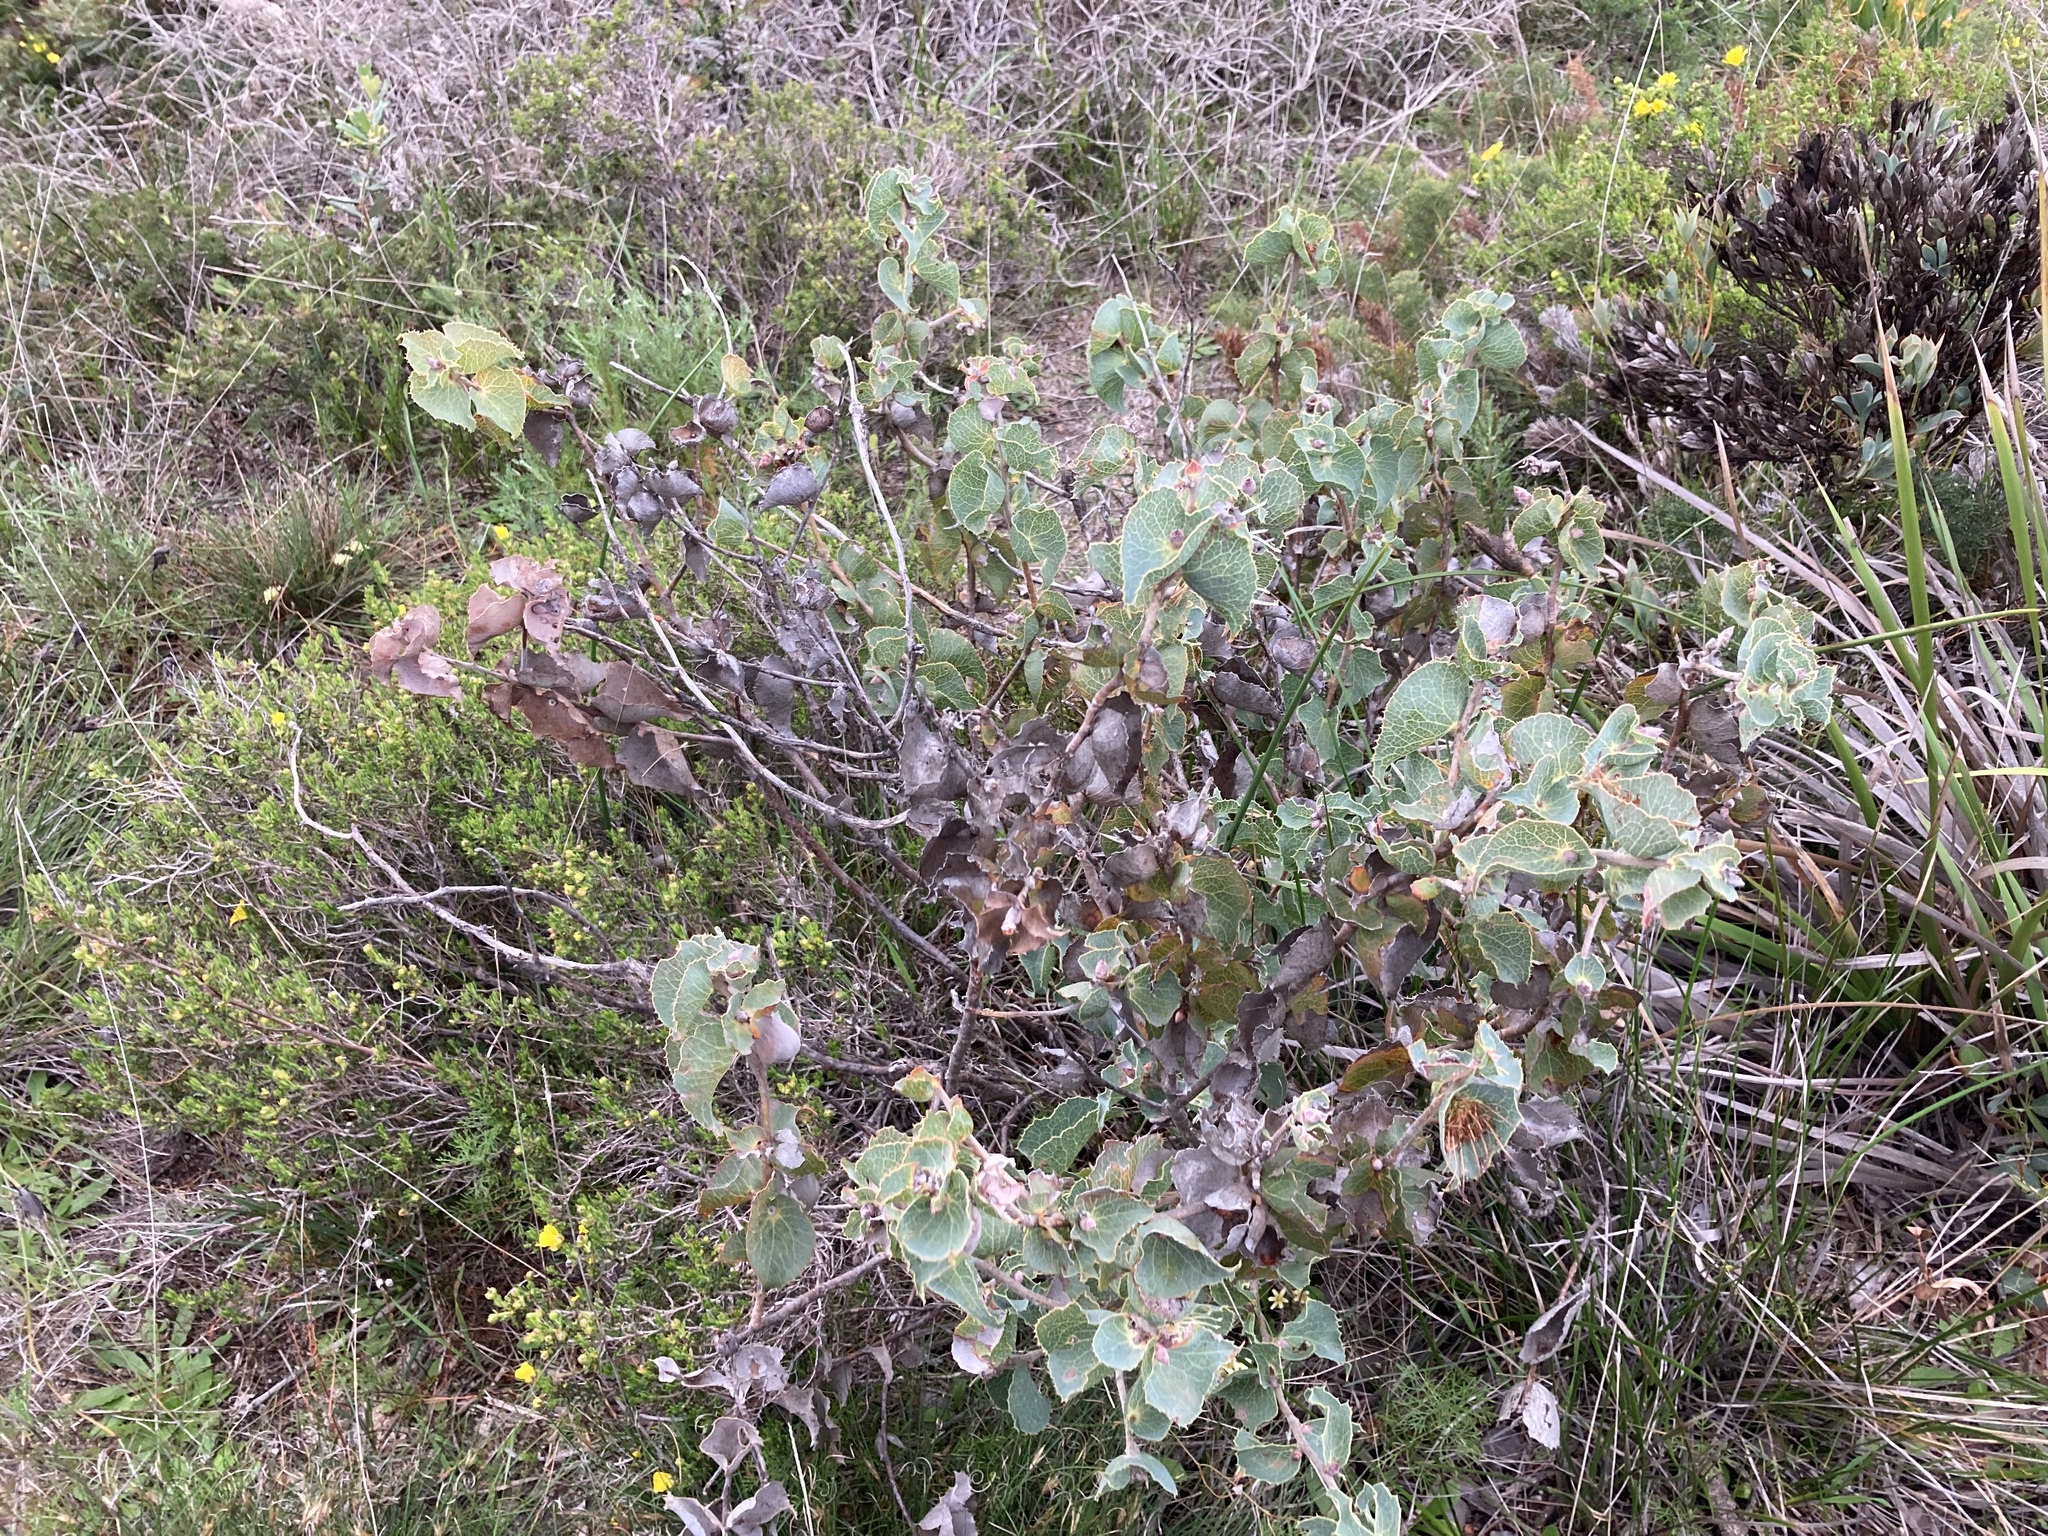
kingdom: Plantae
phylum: Tracheophyta
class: Magnoliopsida
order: Proteales
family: Proteaceae
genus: Hakea
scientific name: Hakea conchifolia
